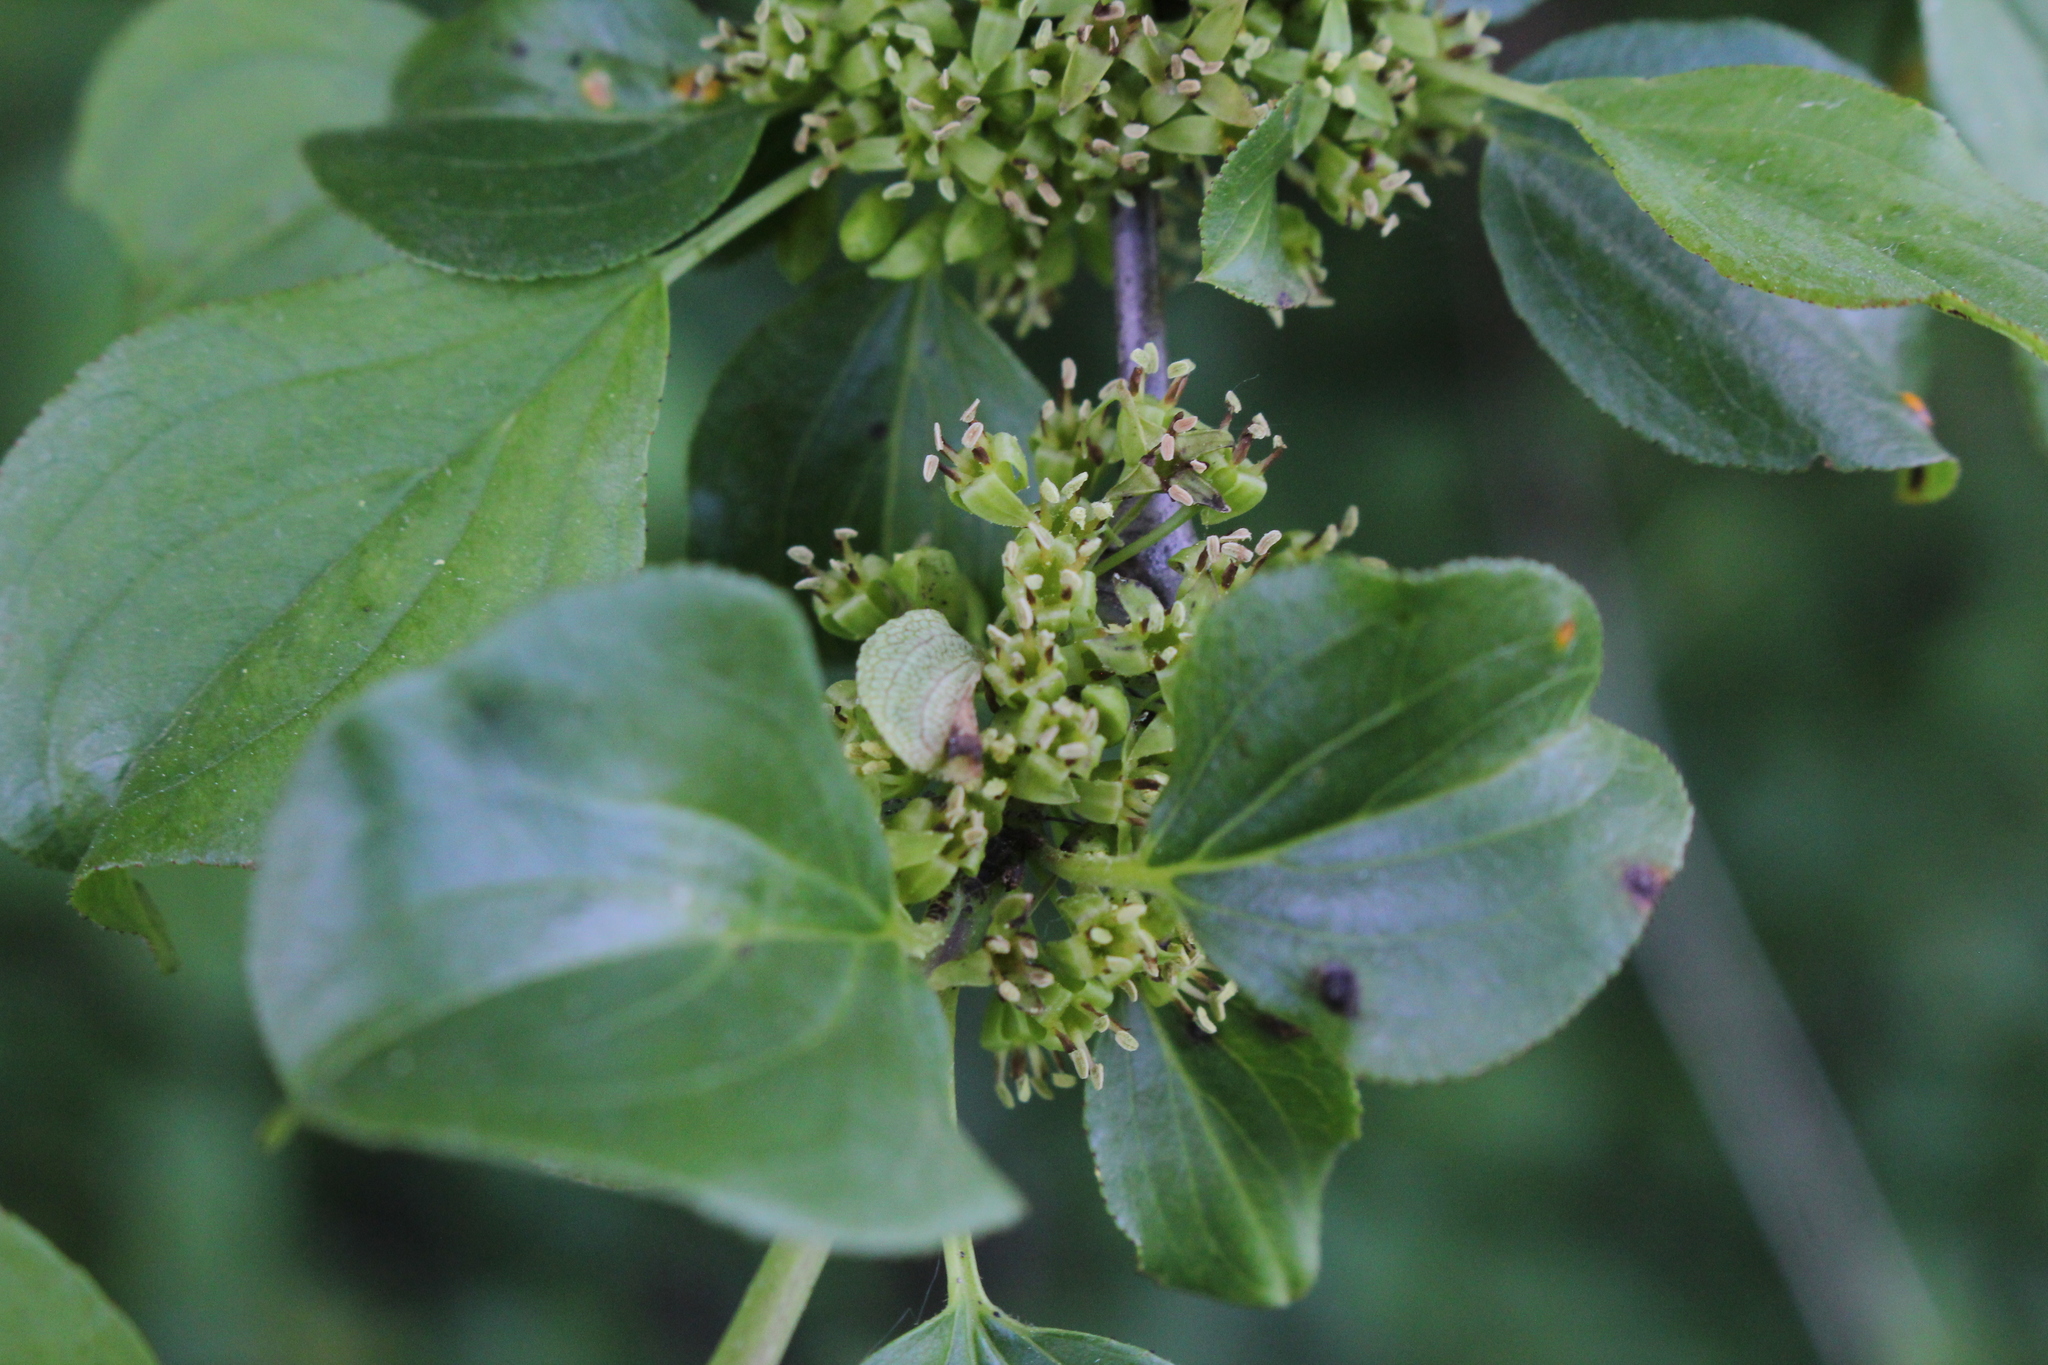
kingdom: Plantae
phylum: Tracheophyta
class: Magnoliopsida
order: Rosales
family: Rhamnaceae
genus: Rhamnus
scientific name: Rhamnus cathartica
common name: Common buckthorn
